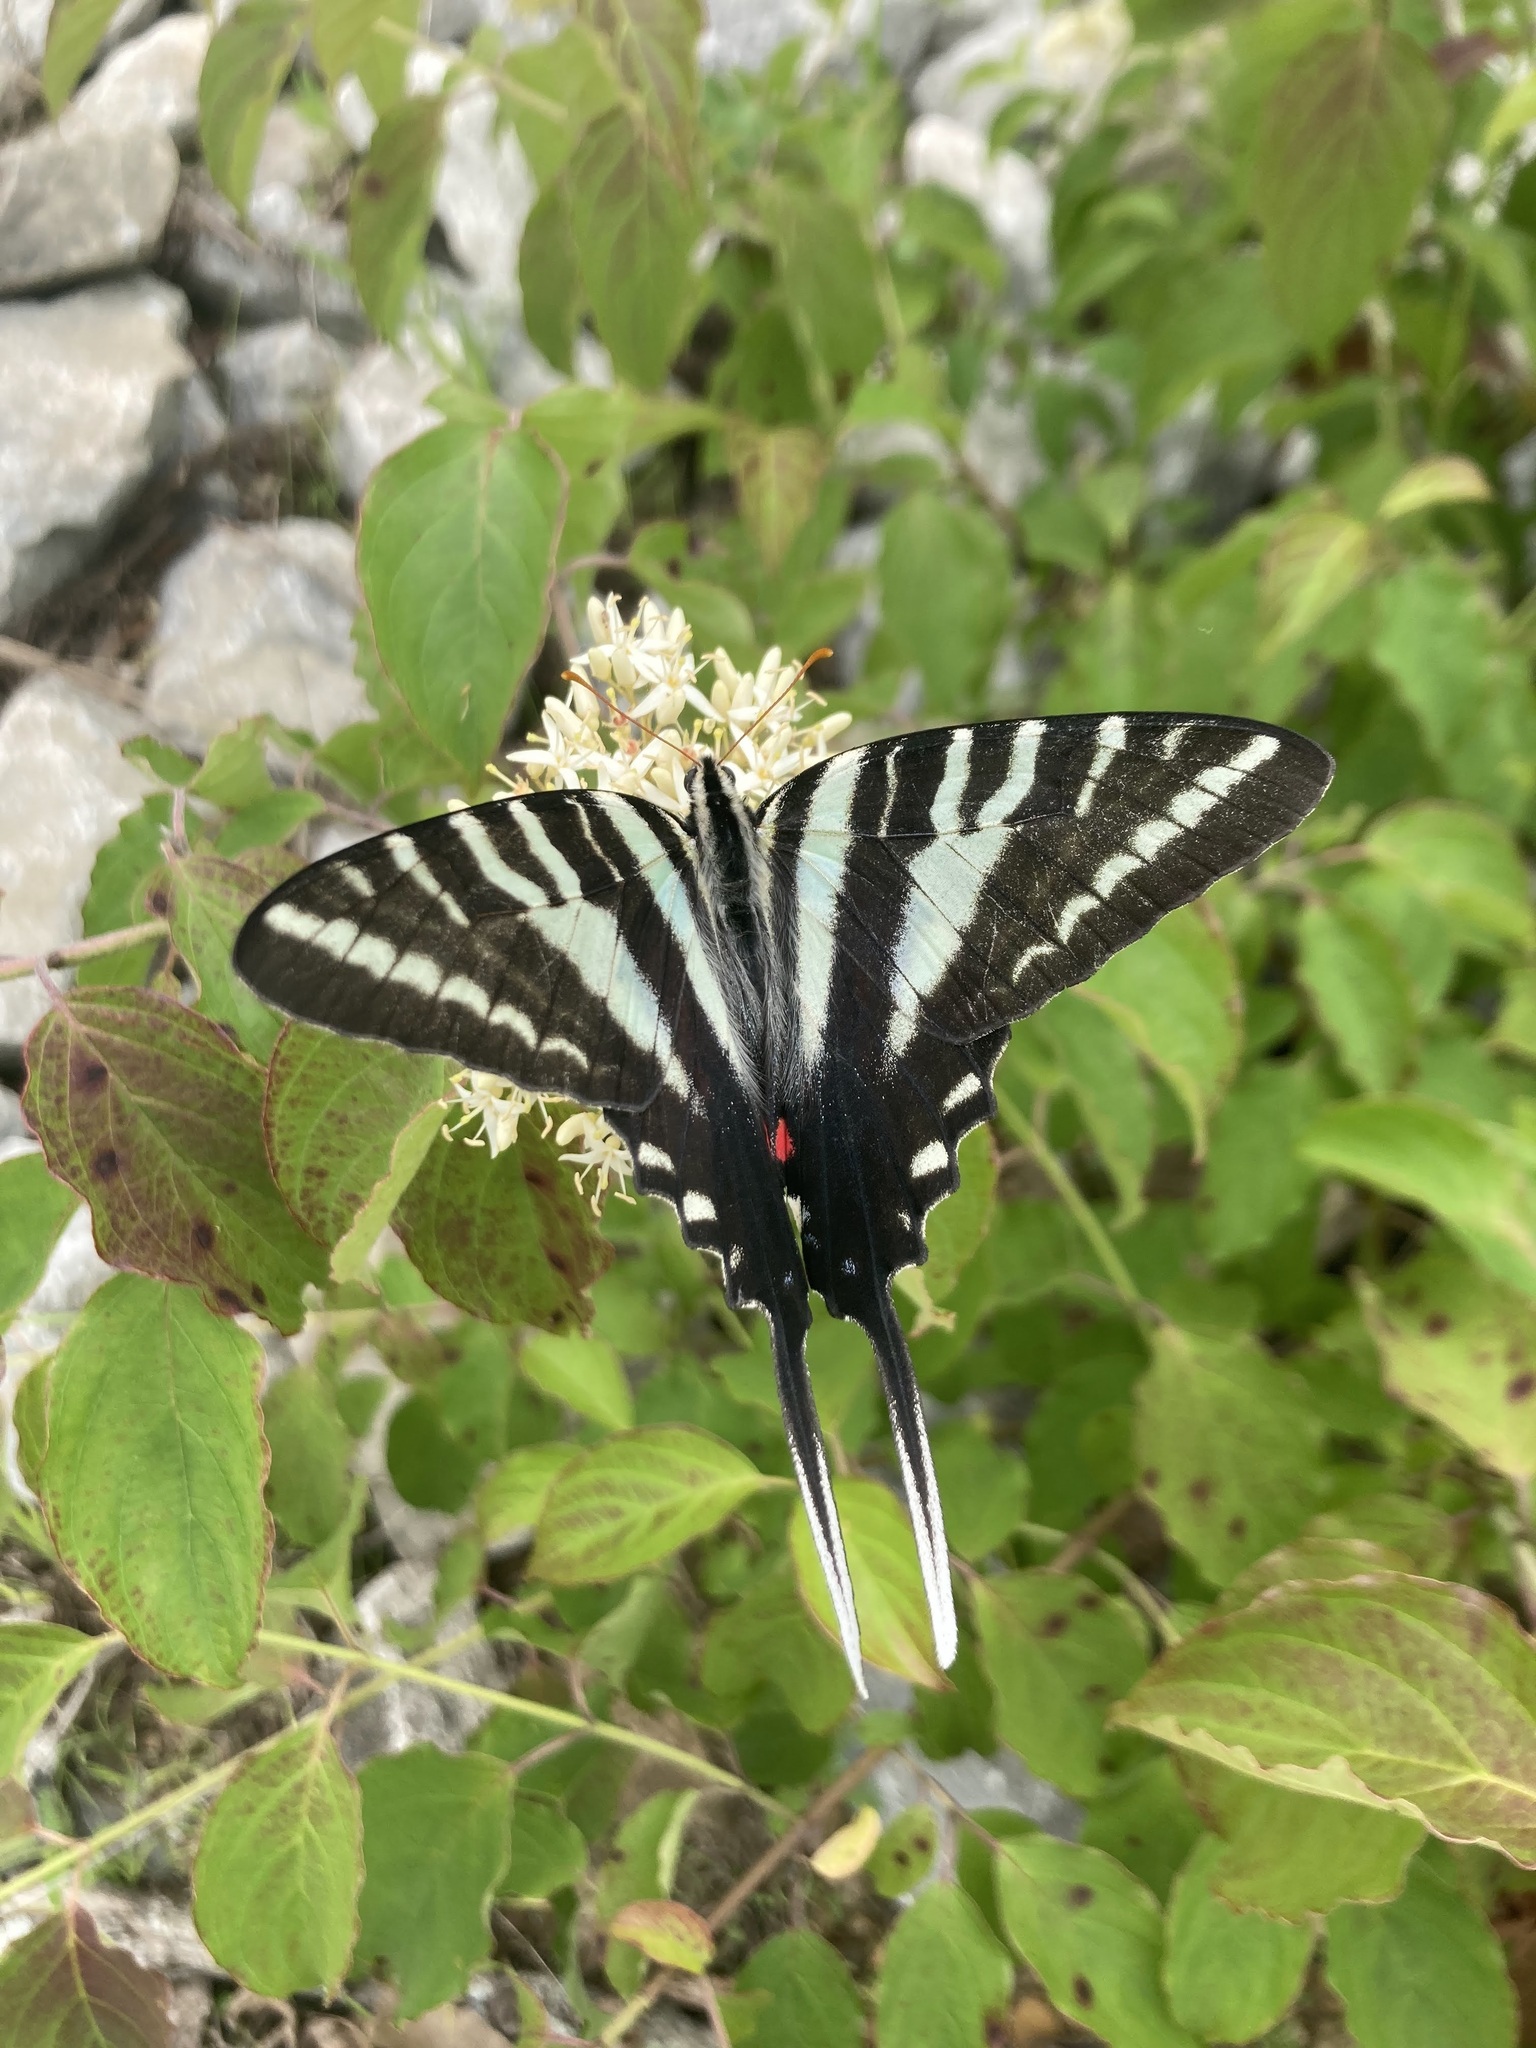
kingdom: Animalia
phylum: Arthropoda
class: Insecta
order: Lepidoptera
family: Papilionidae
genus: Protographium
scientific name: Protographium marcellus
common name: Zebra swallowtail
